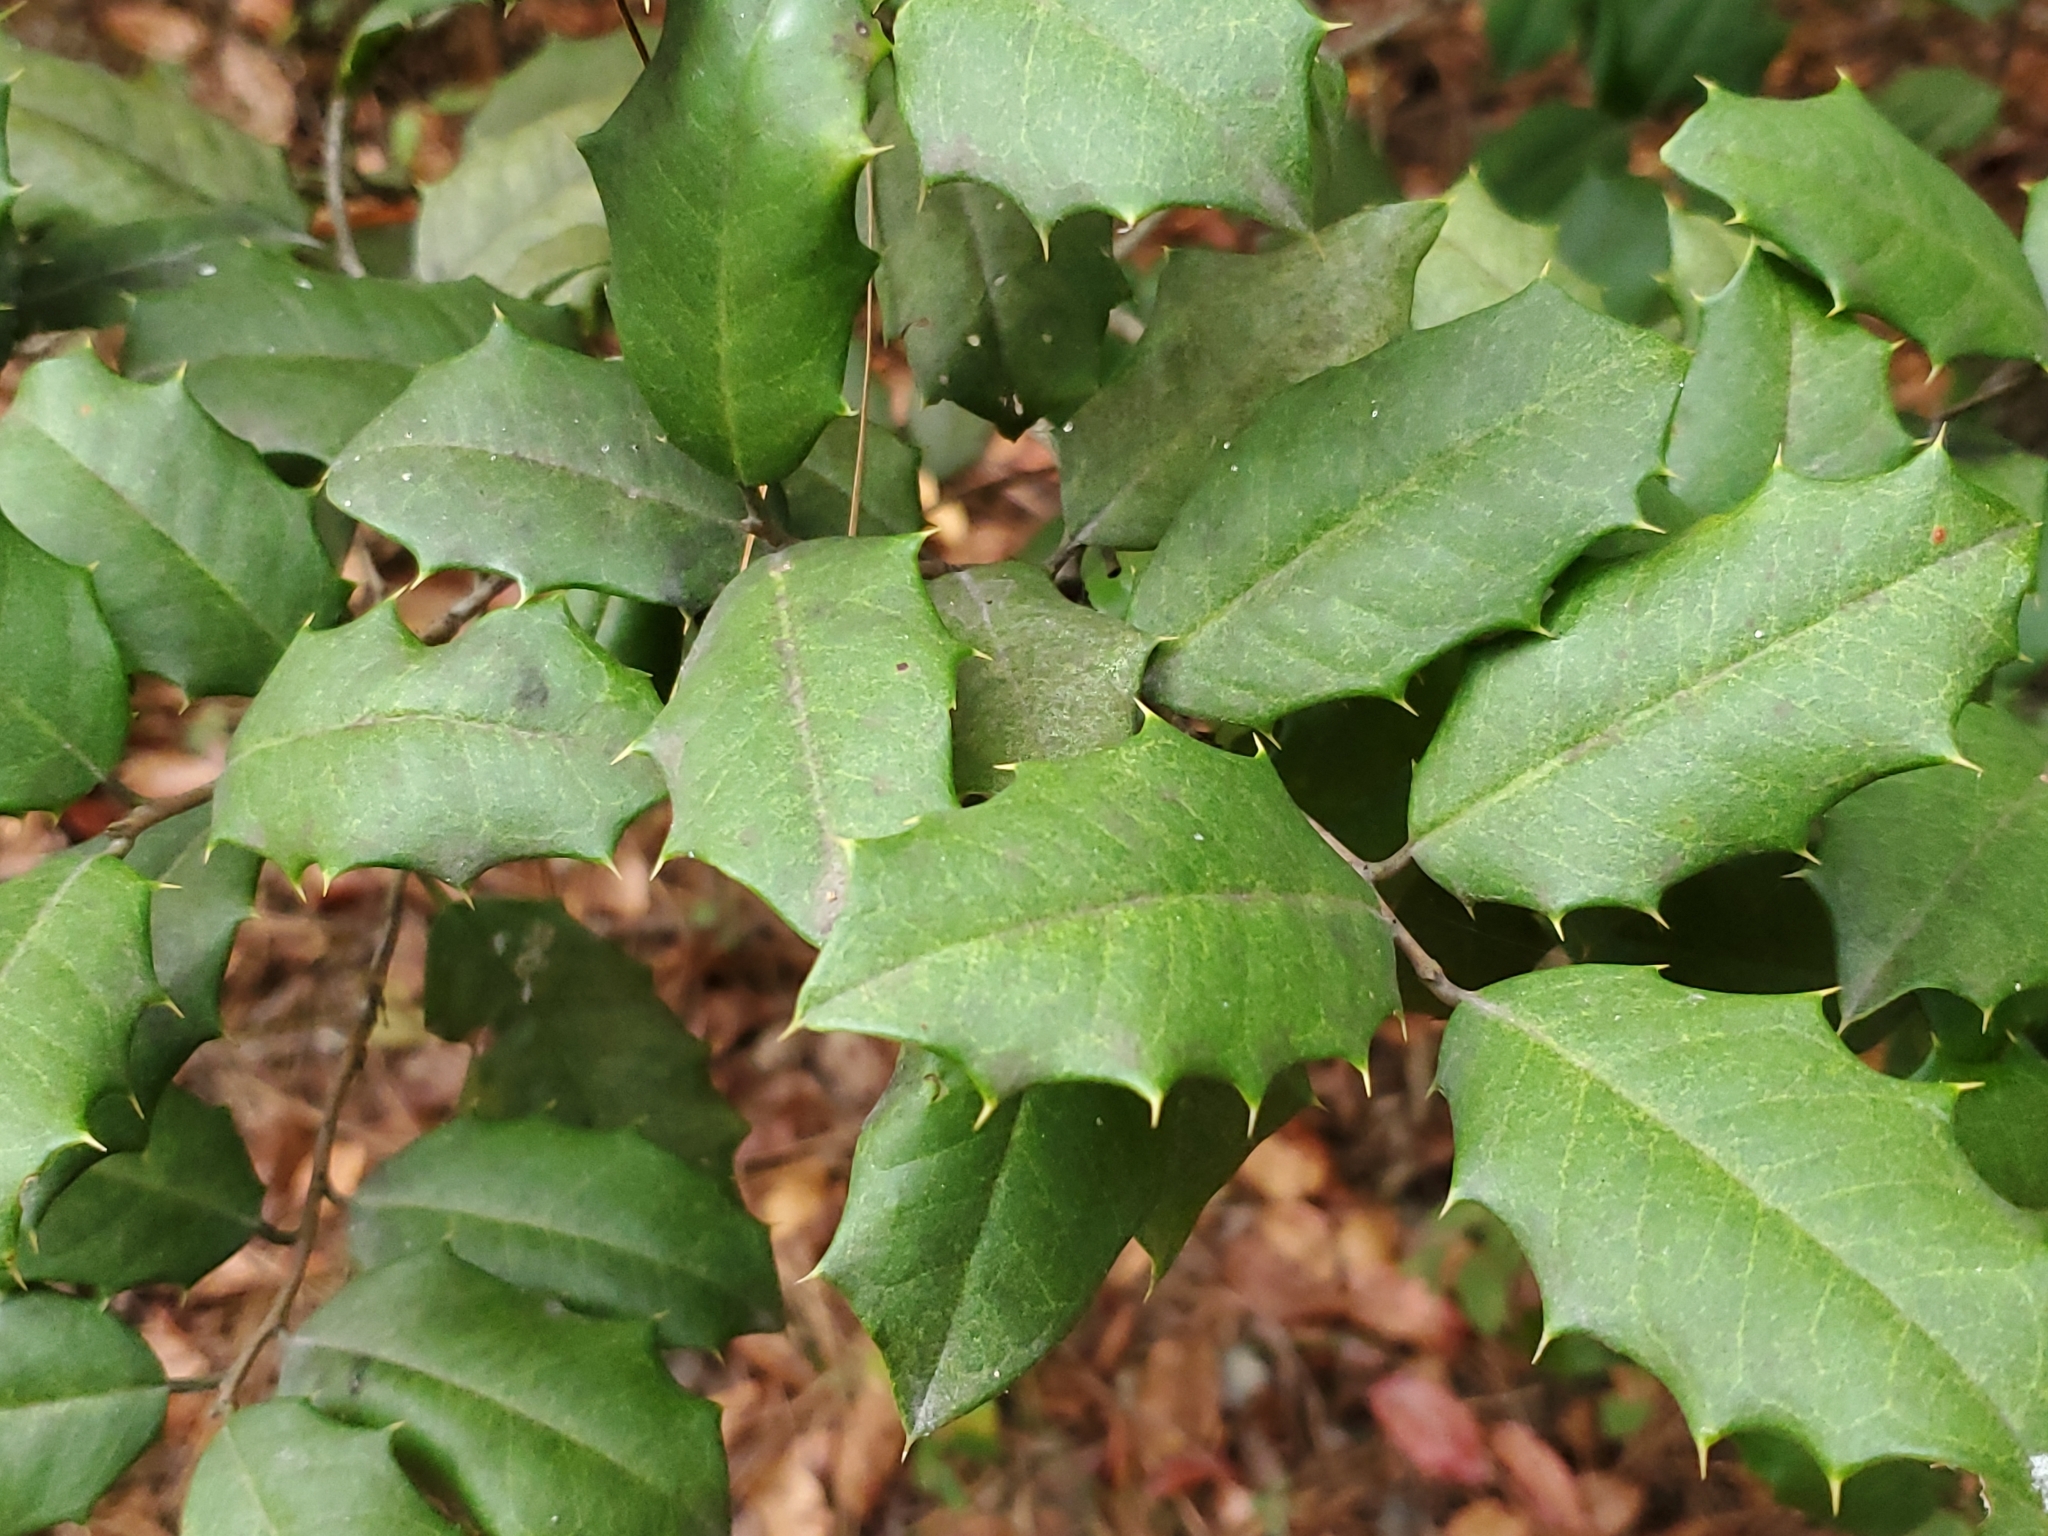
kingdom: Plantae
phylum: Tracheophyta
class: Magnoliopsida
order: Aquifoliales
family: Aquifoliaceae
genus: Ilex
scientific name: Ilex opaca
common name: American holly
